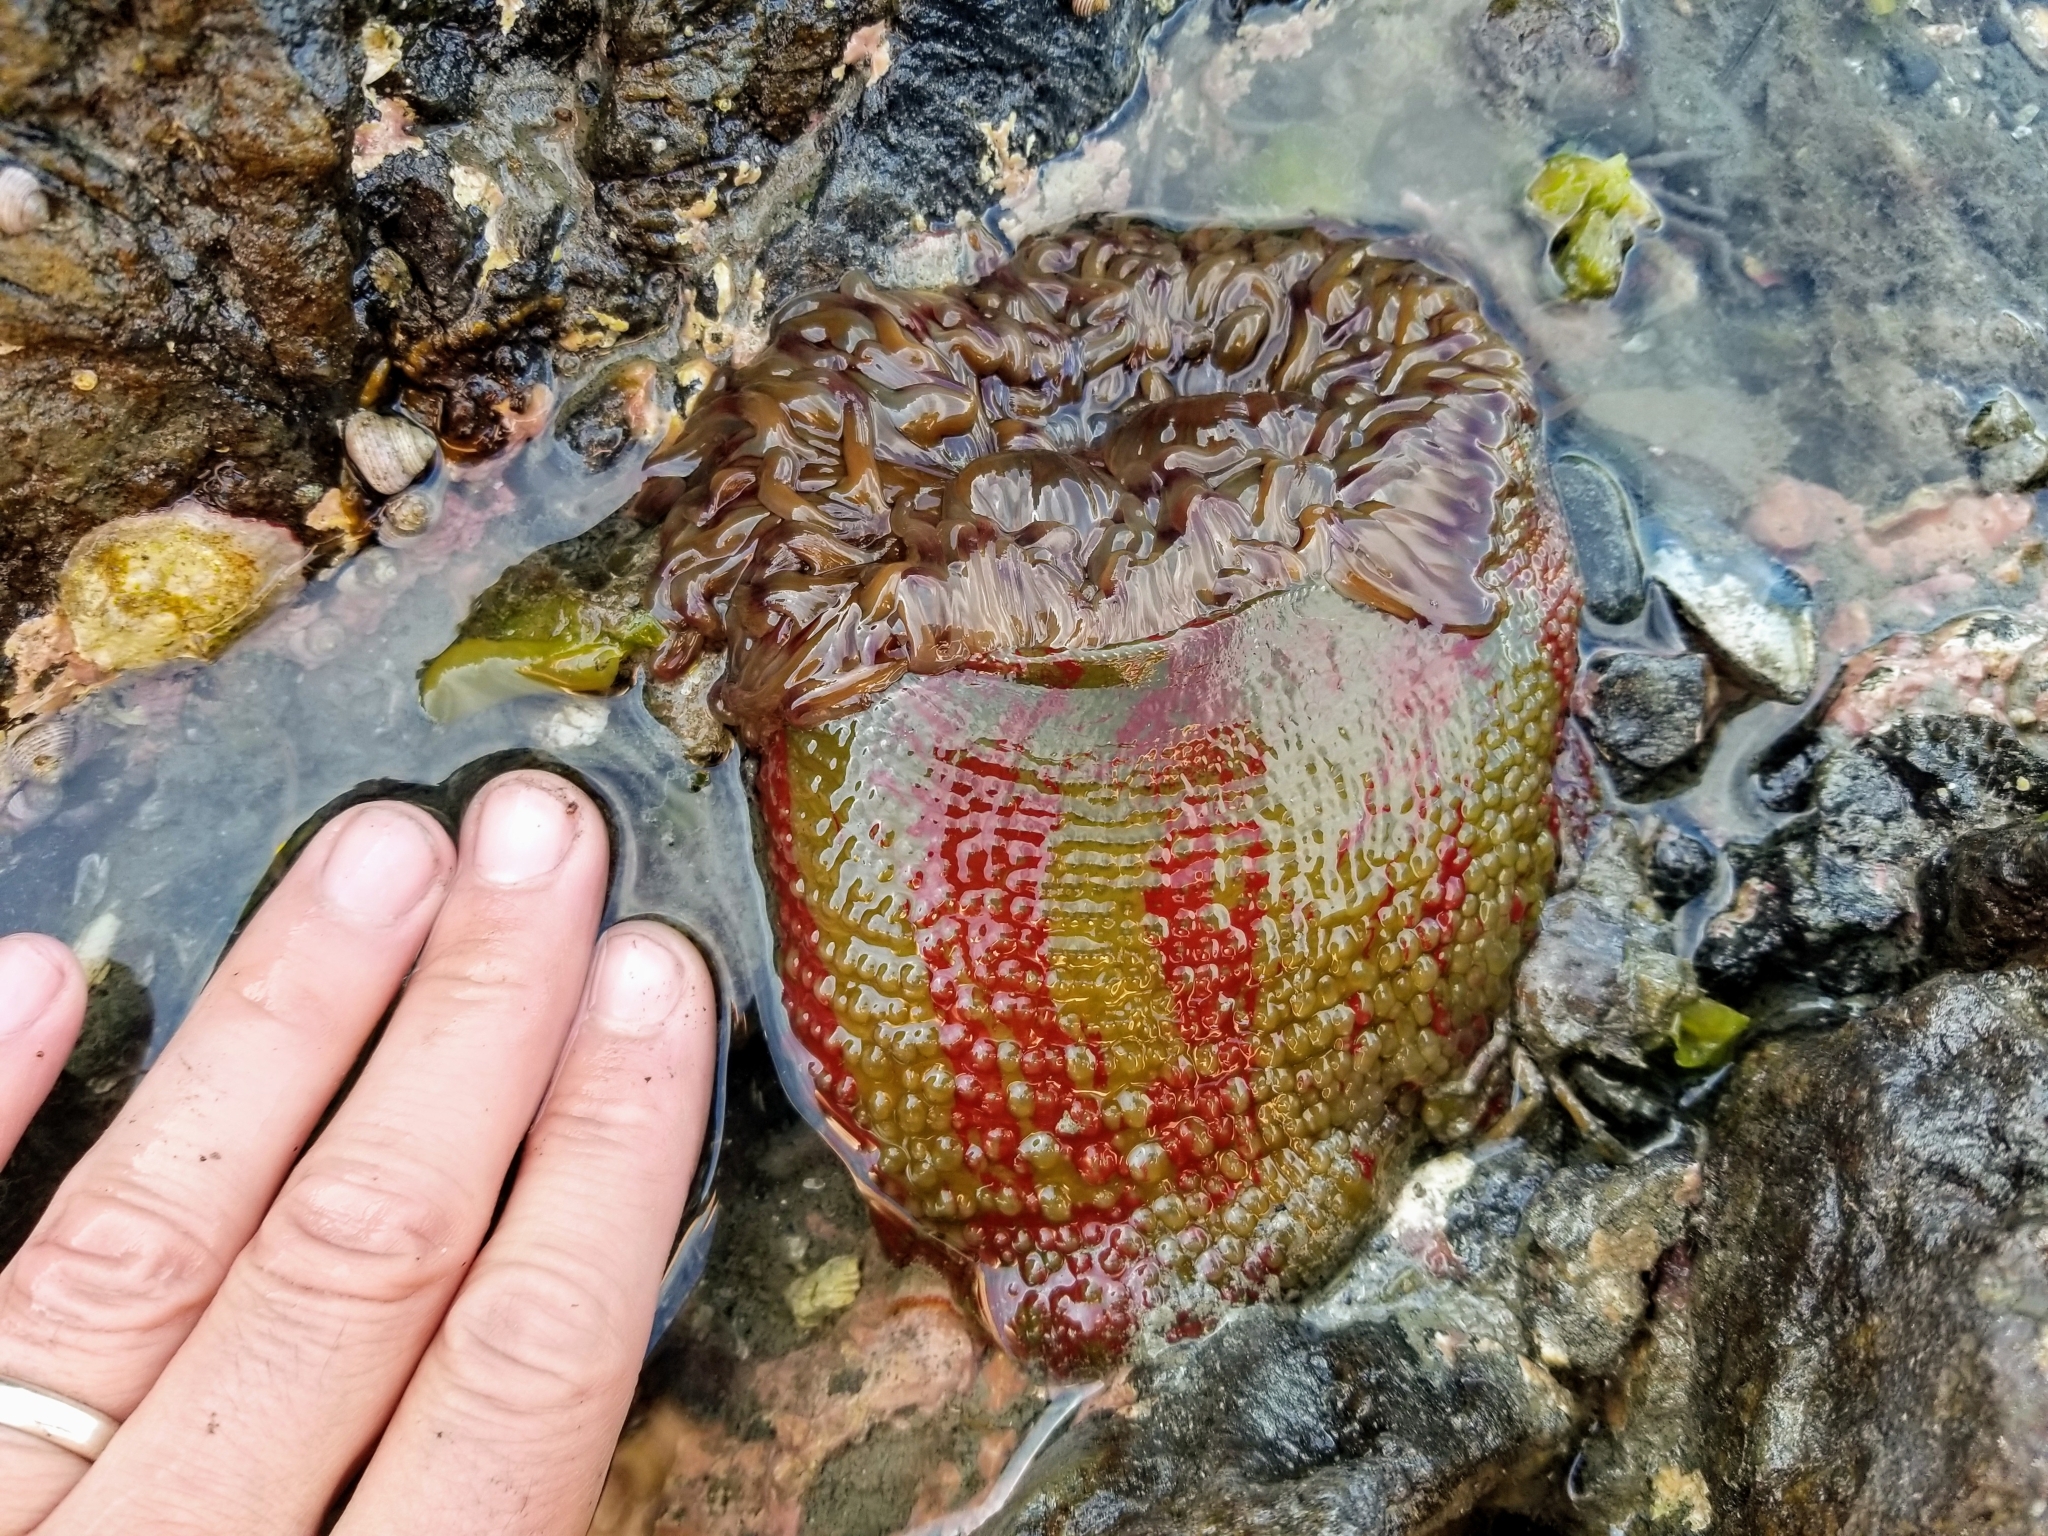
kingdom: Animalia
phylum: Cnidaria
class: Anthozoa
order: Actiniaria
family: Actiniidae
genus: Urticina
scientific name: Urticina grebelnyi
